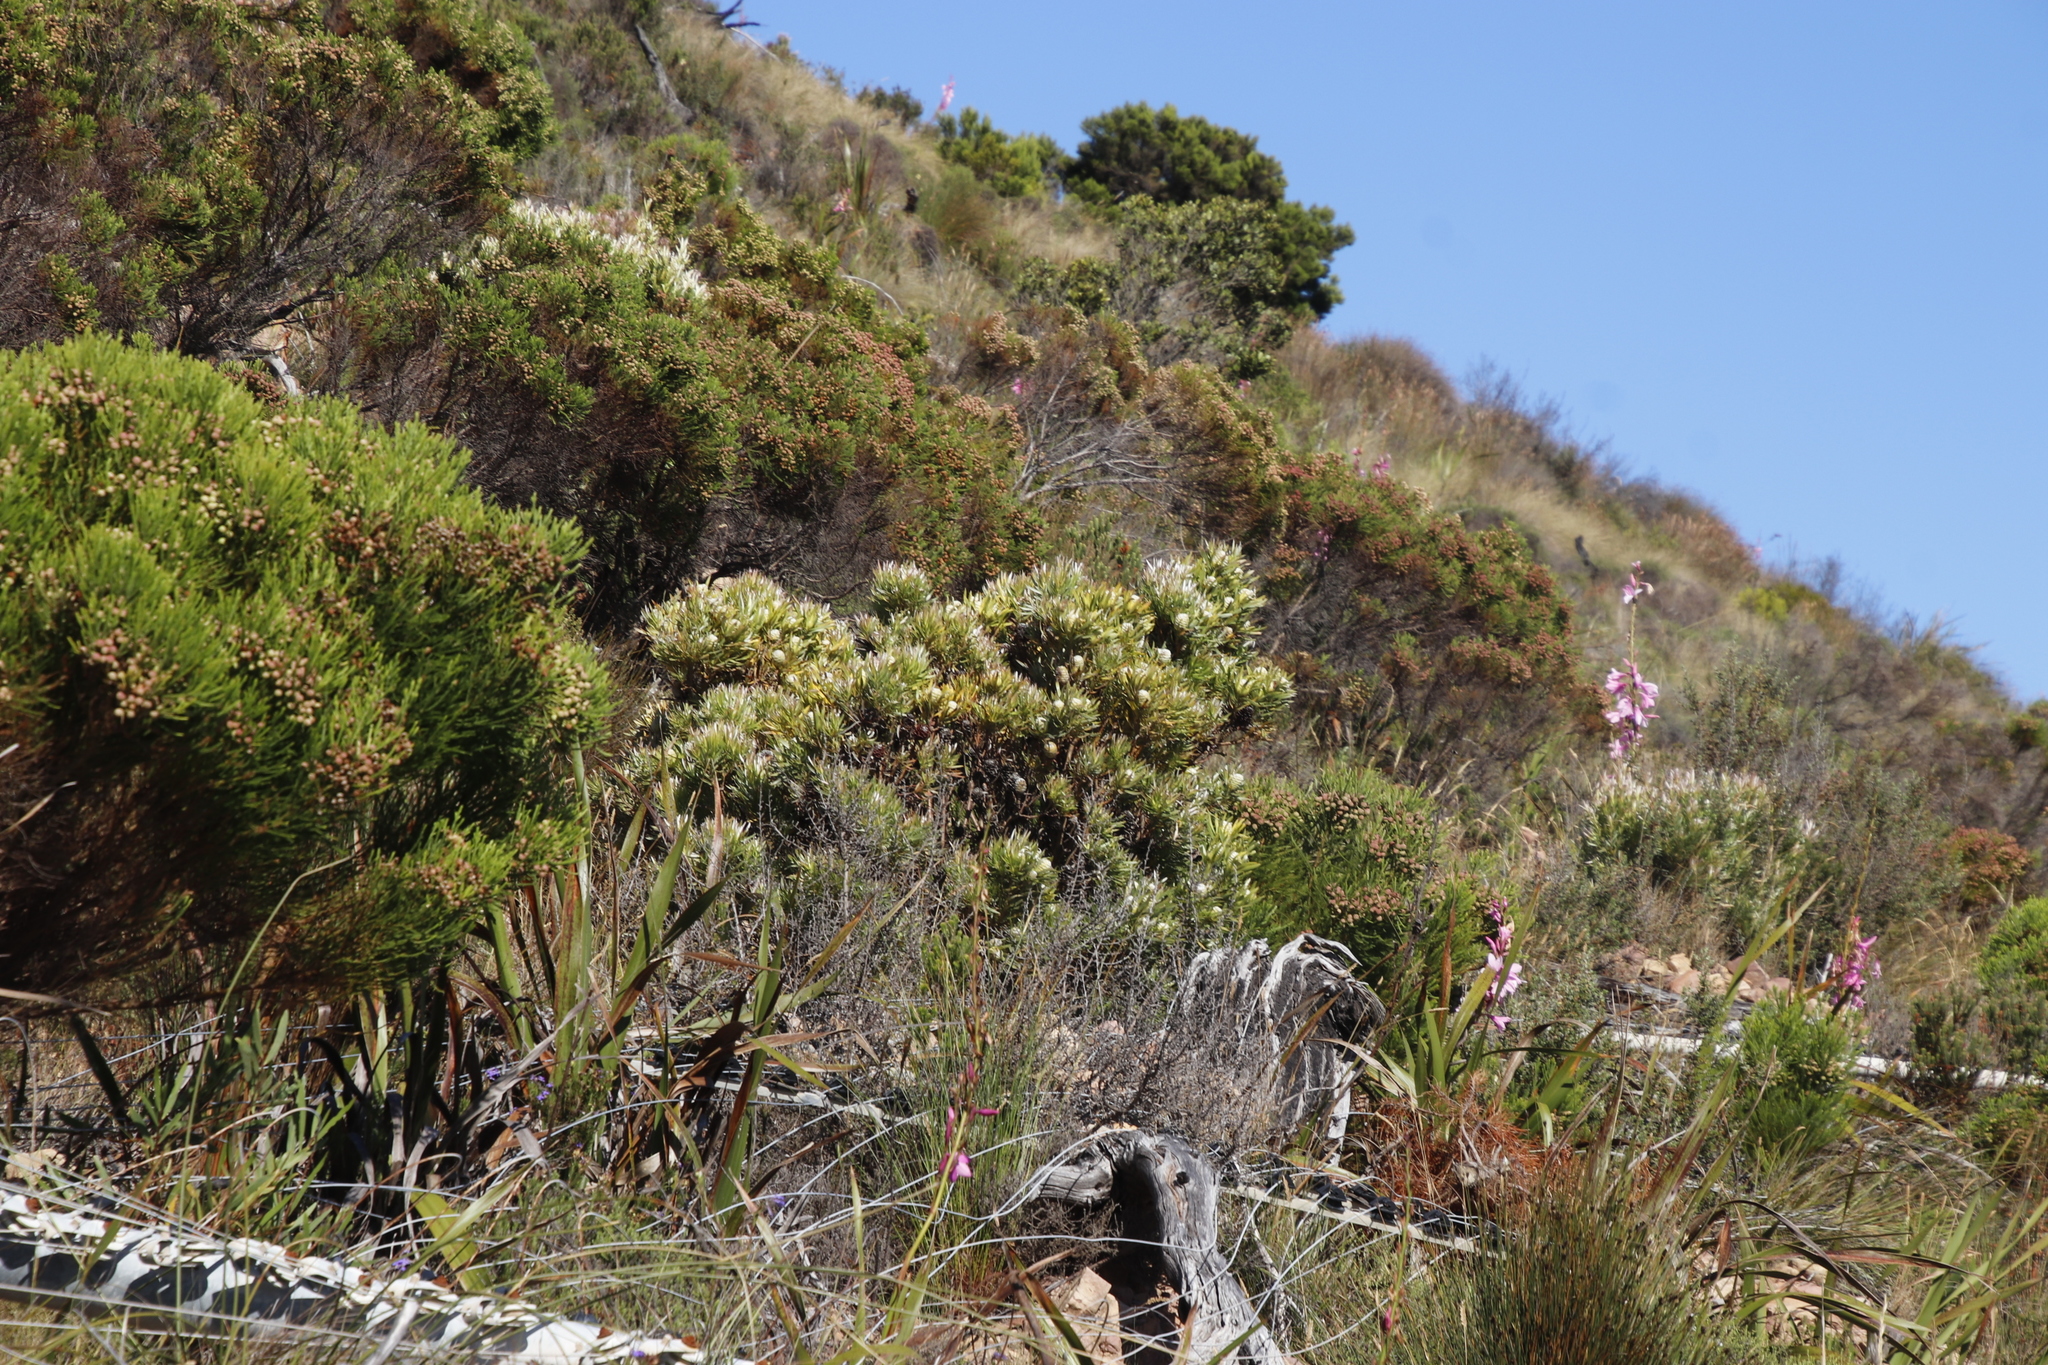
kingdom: Plantae
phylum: Tracheophyta
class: Magnoliopsida
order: Proteales
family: Proteaceae
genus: Leucadendron
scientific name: Leucadendron xanthoconus
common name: Sickle-leaf conebush
